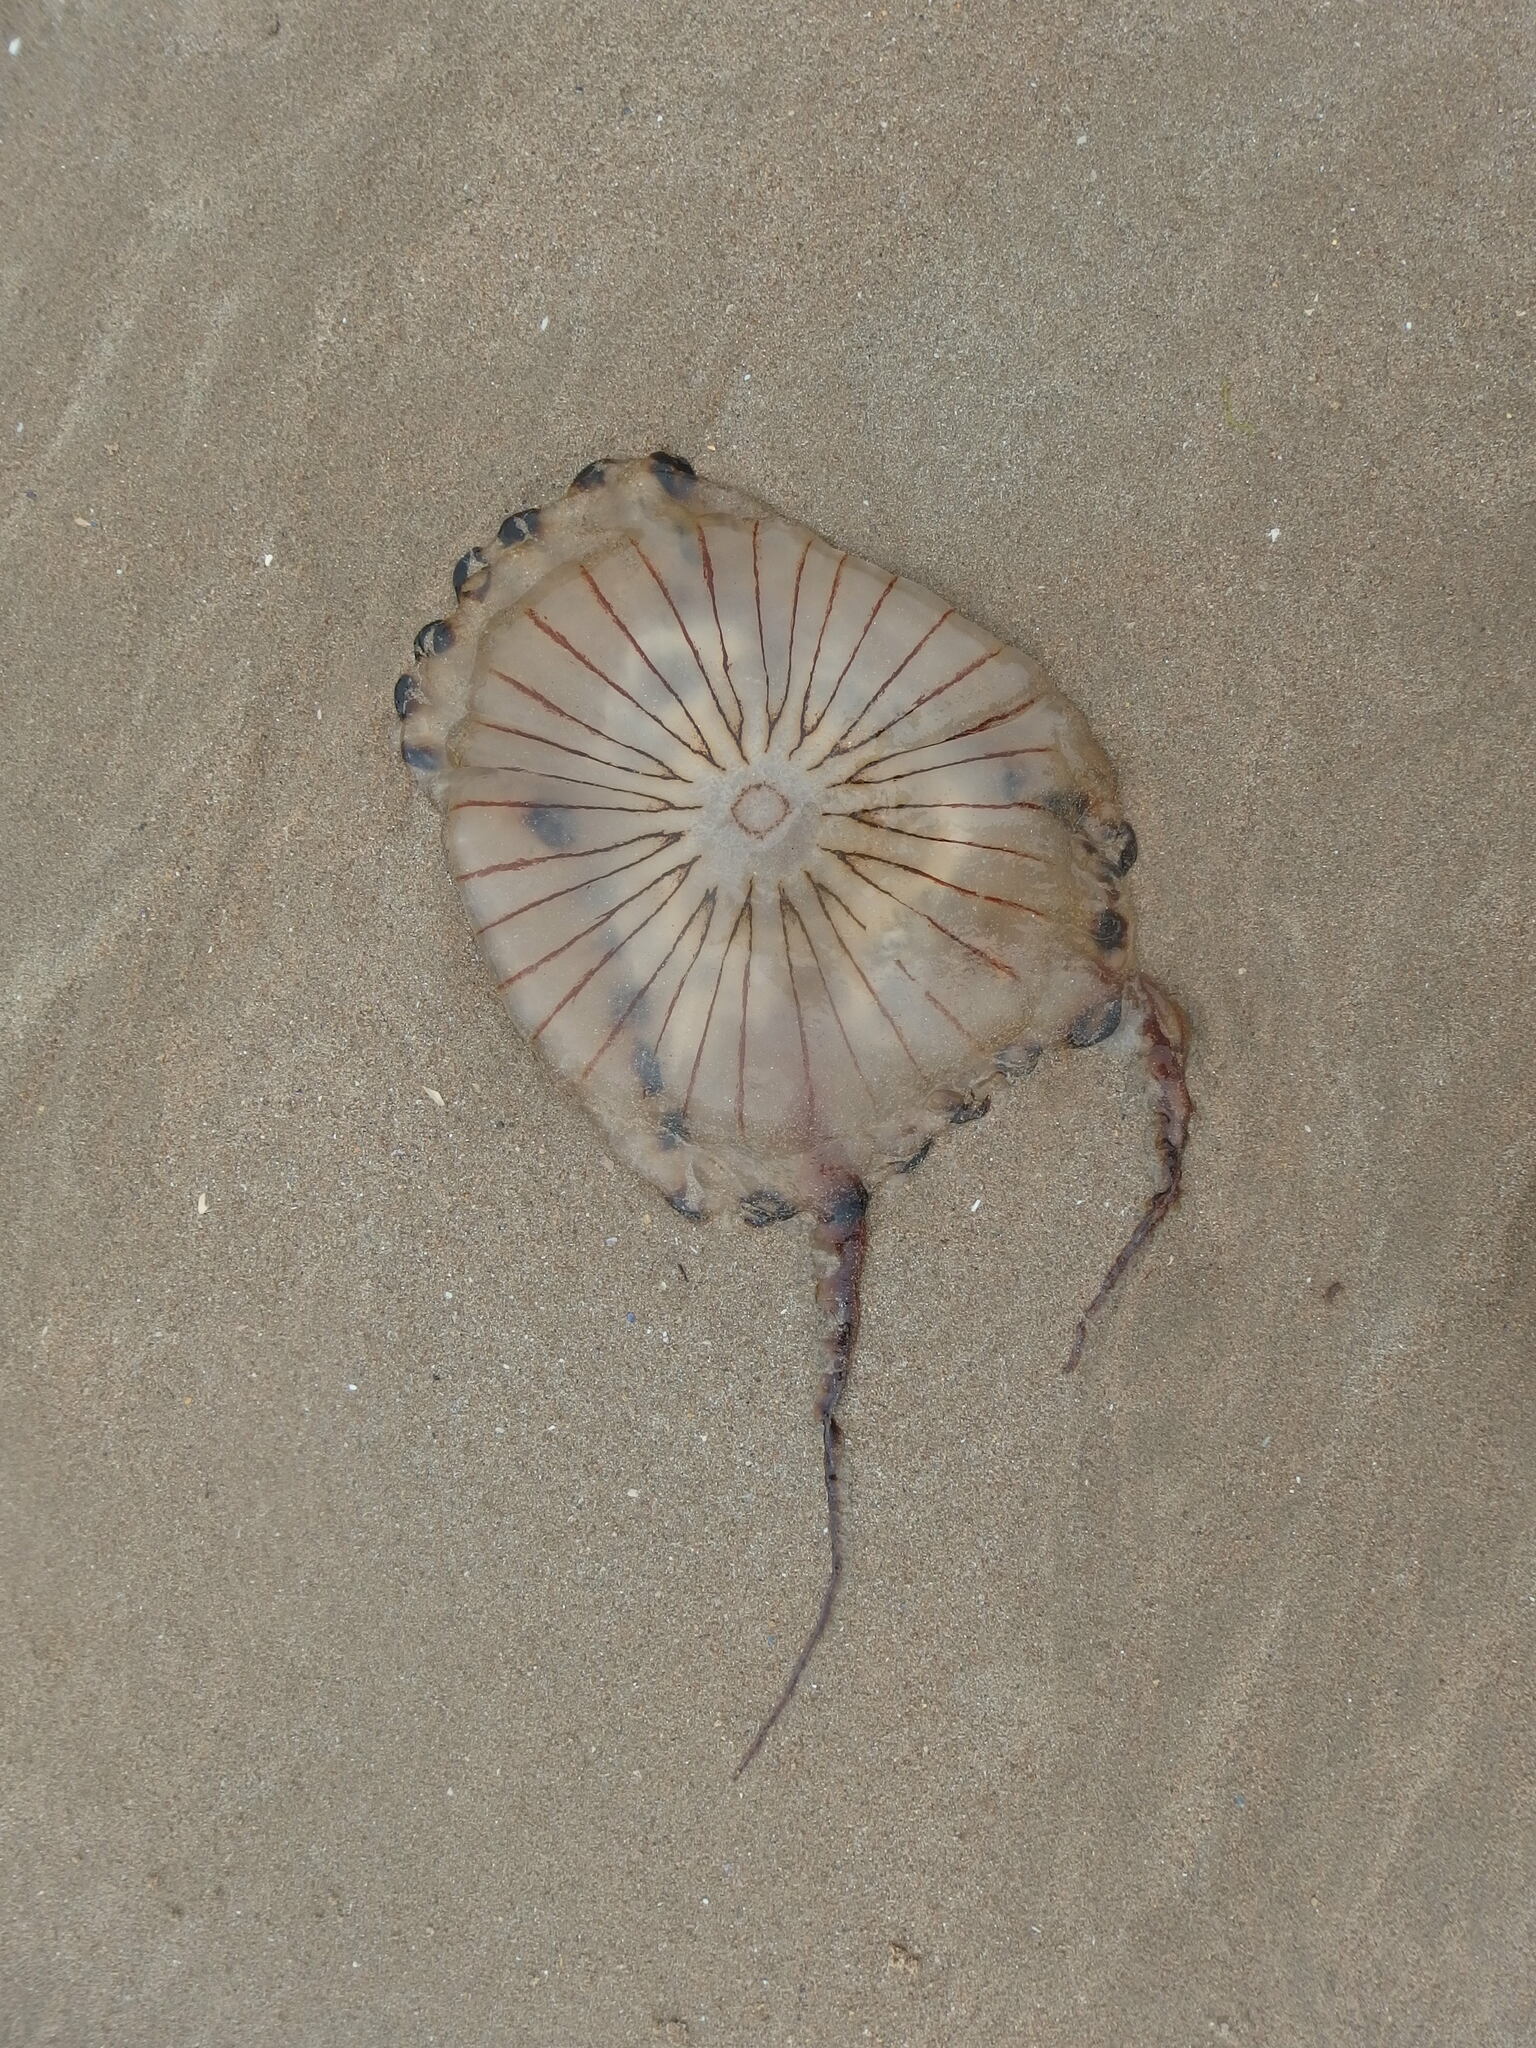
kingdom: Animalia
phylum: Cnidaria
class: Scyphozoa
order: Semaeostomeae
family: Pelagiidae
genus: Chrysaora
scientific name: Chrysaora hysoscella
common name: Compass jellyfish
